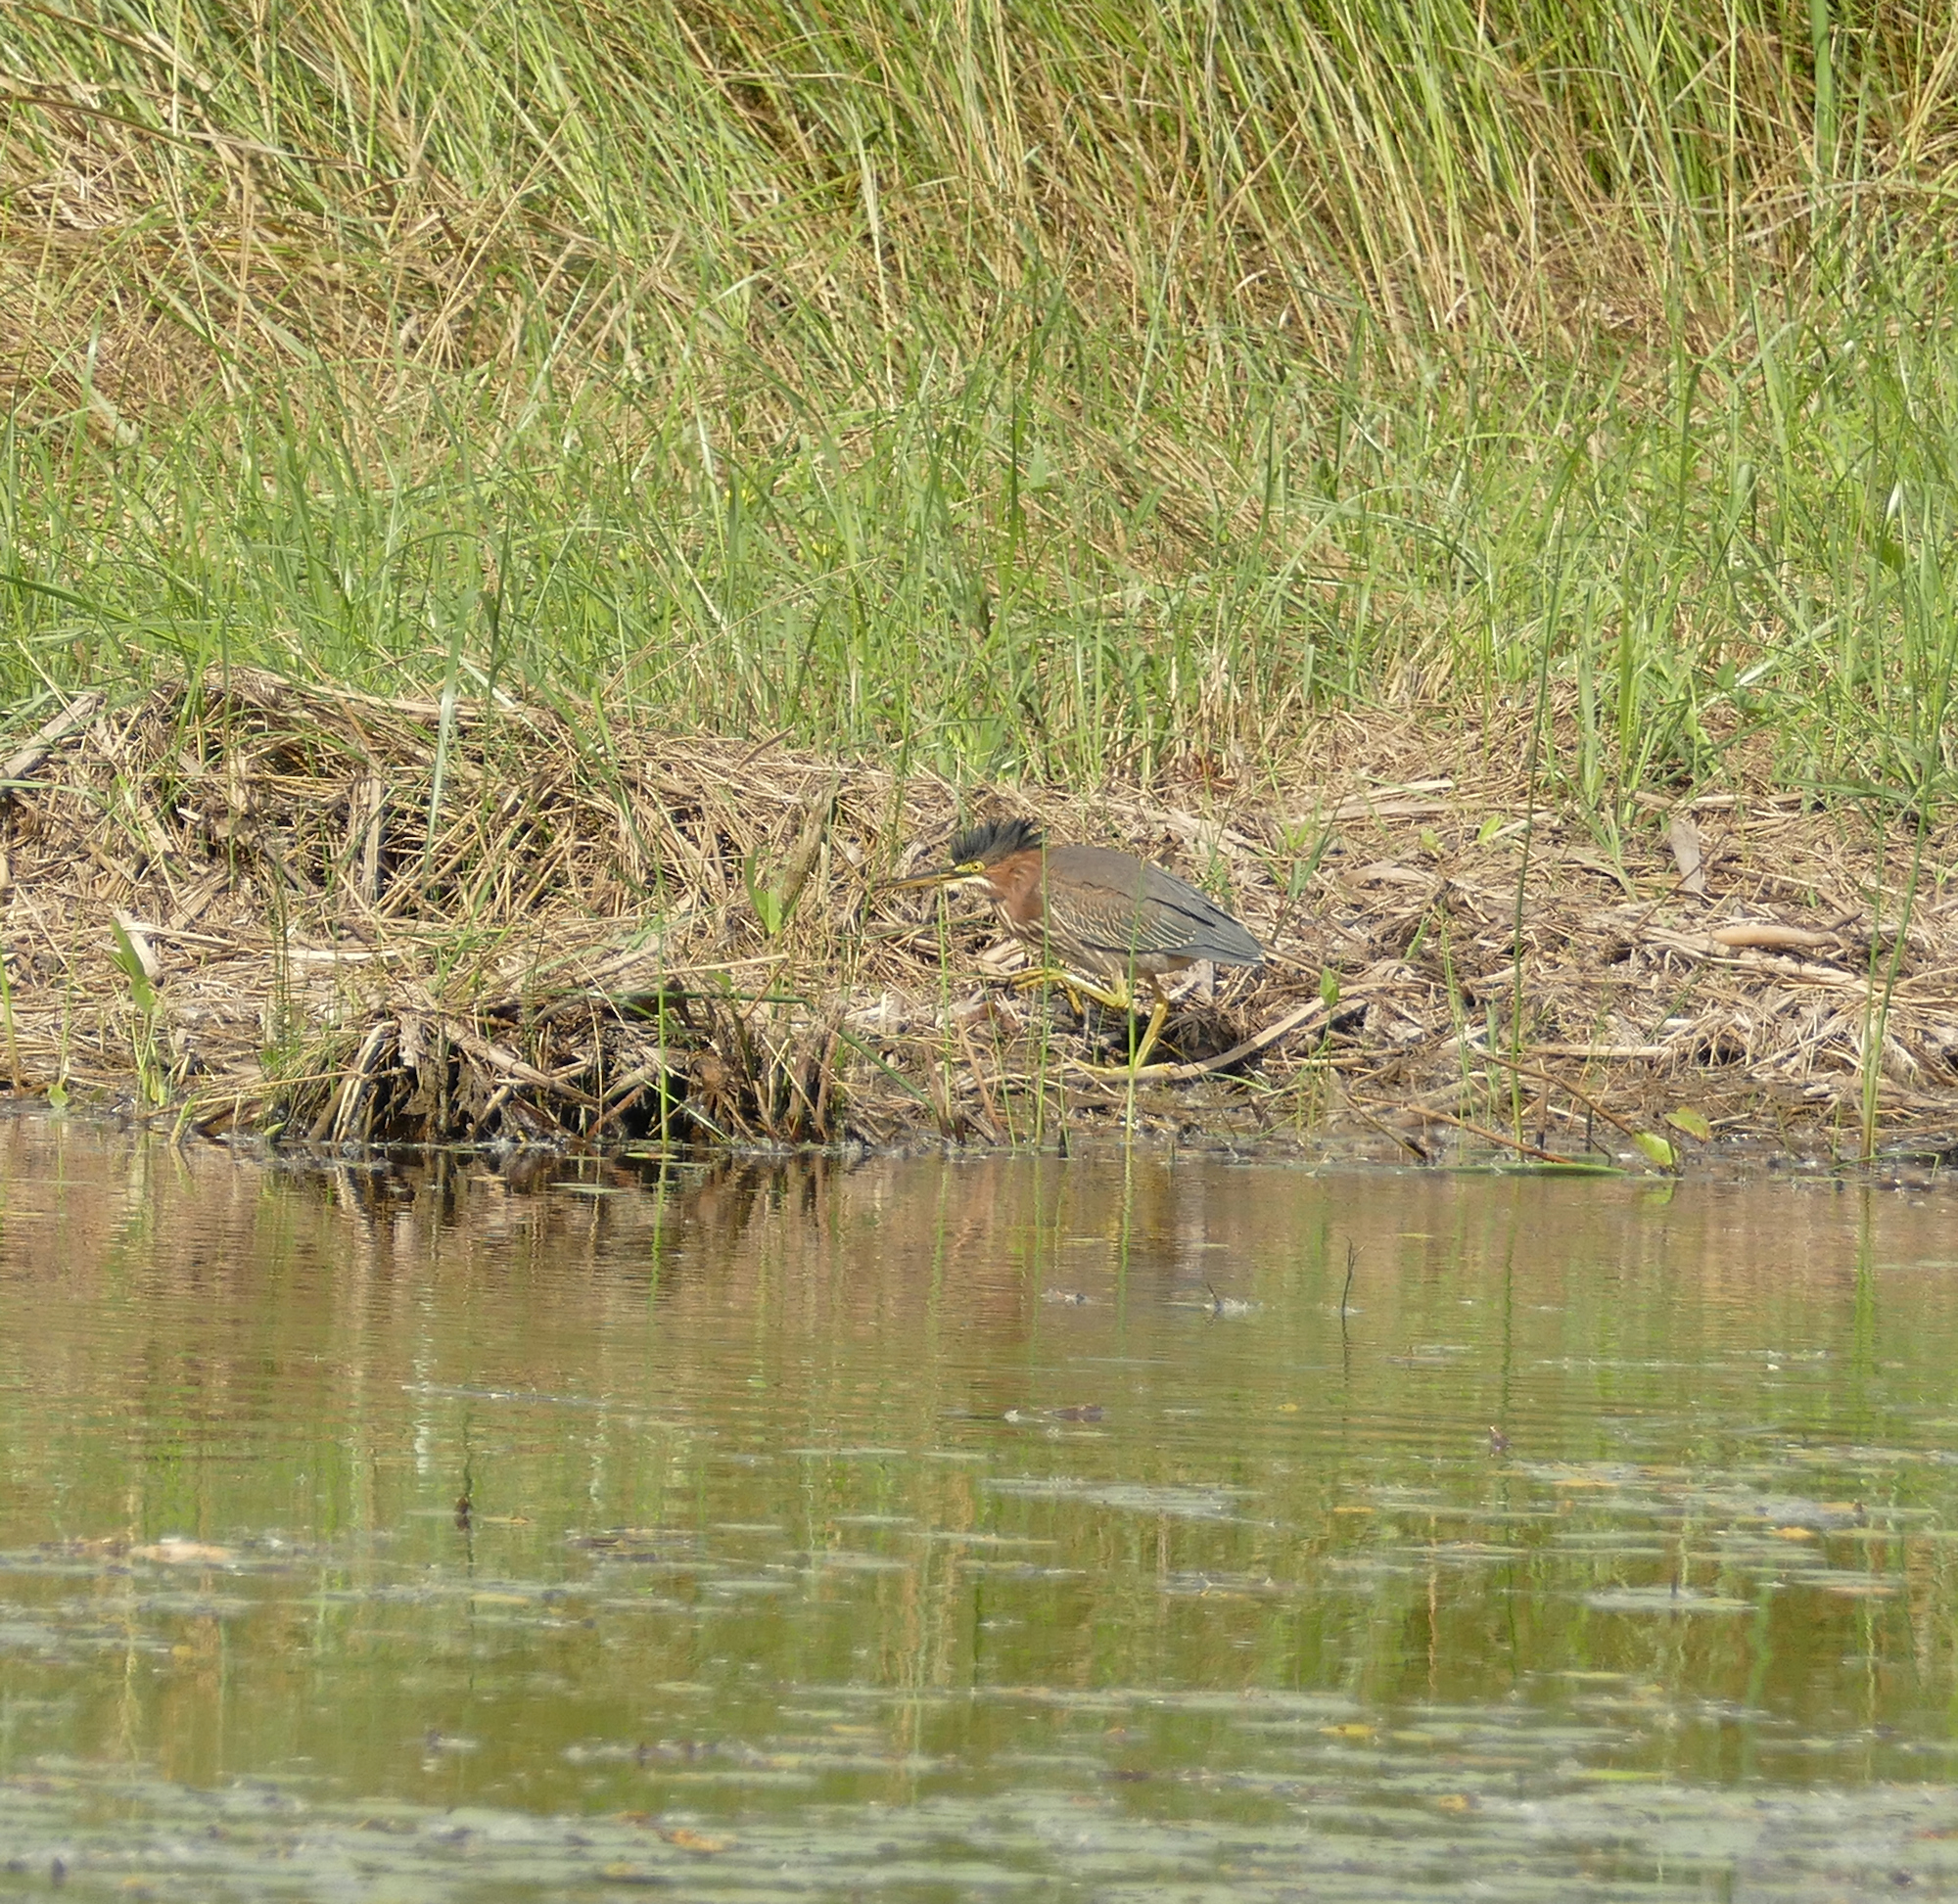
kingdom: Animalia
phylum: Chordata
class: Aves
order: Pelecaniformes
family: Ardeidae
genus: Butorides
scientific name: Butorides virescens
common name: Green heron
